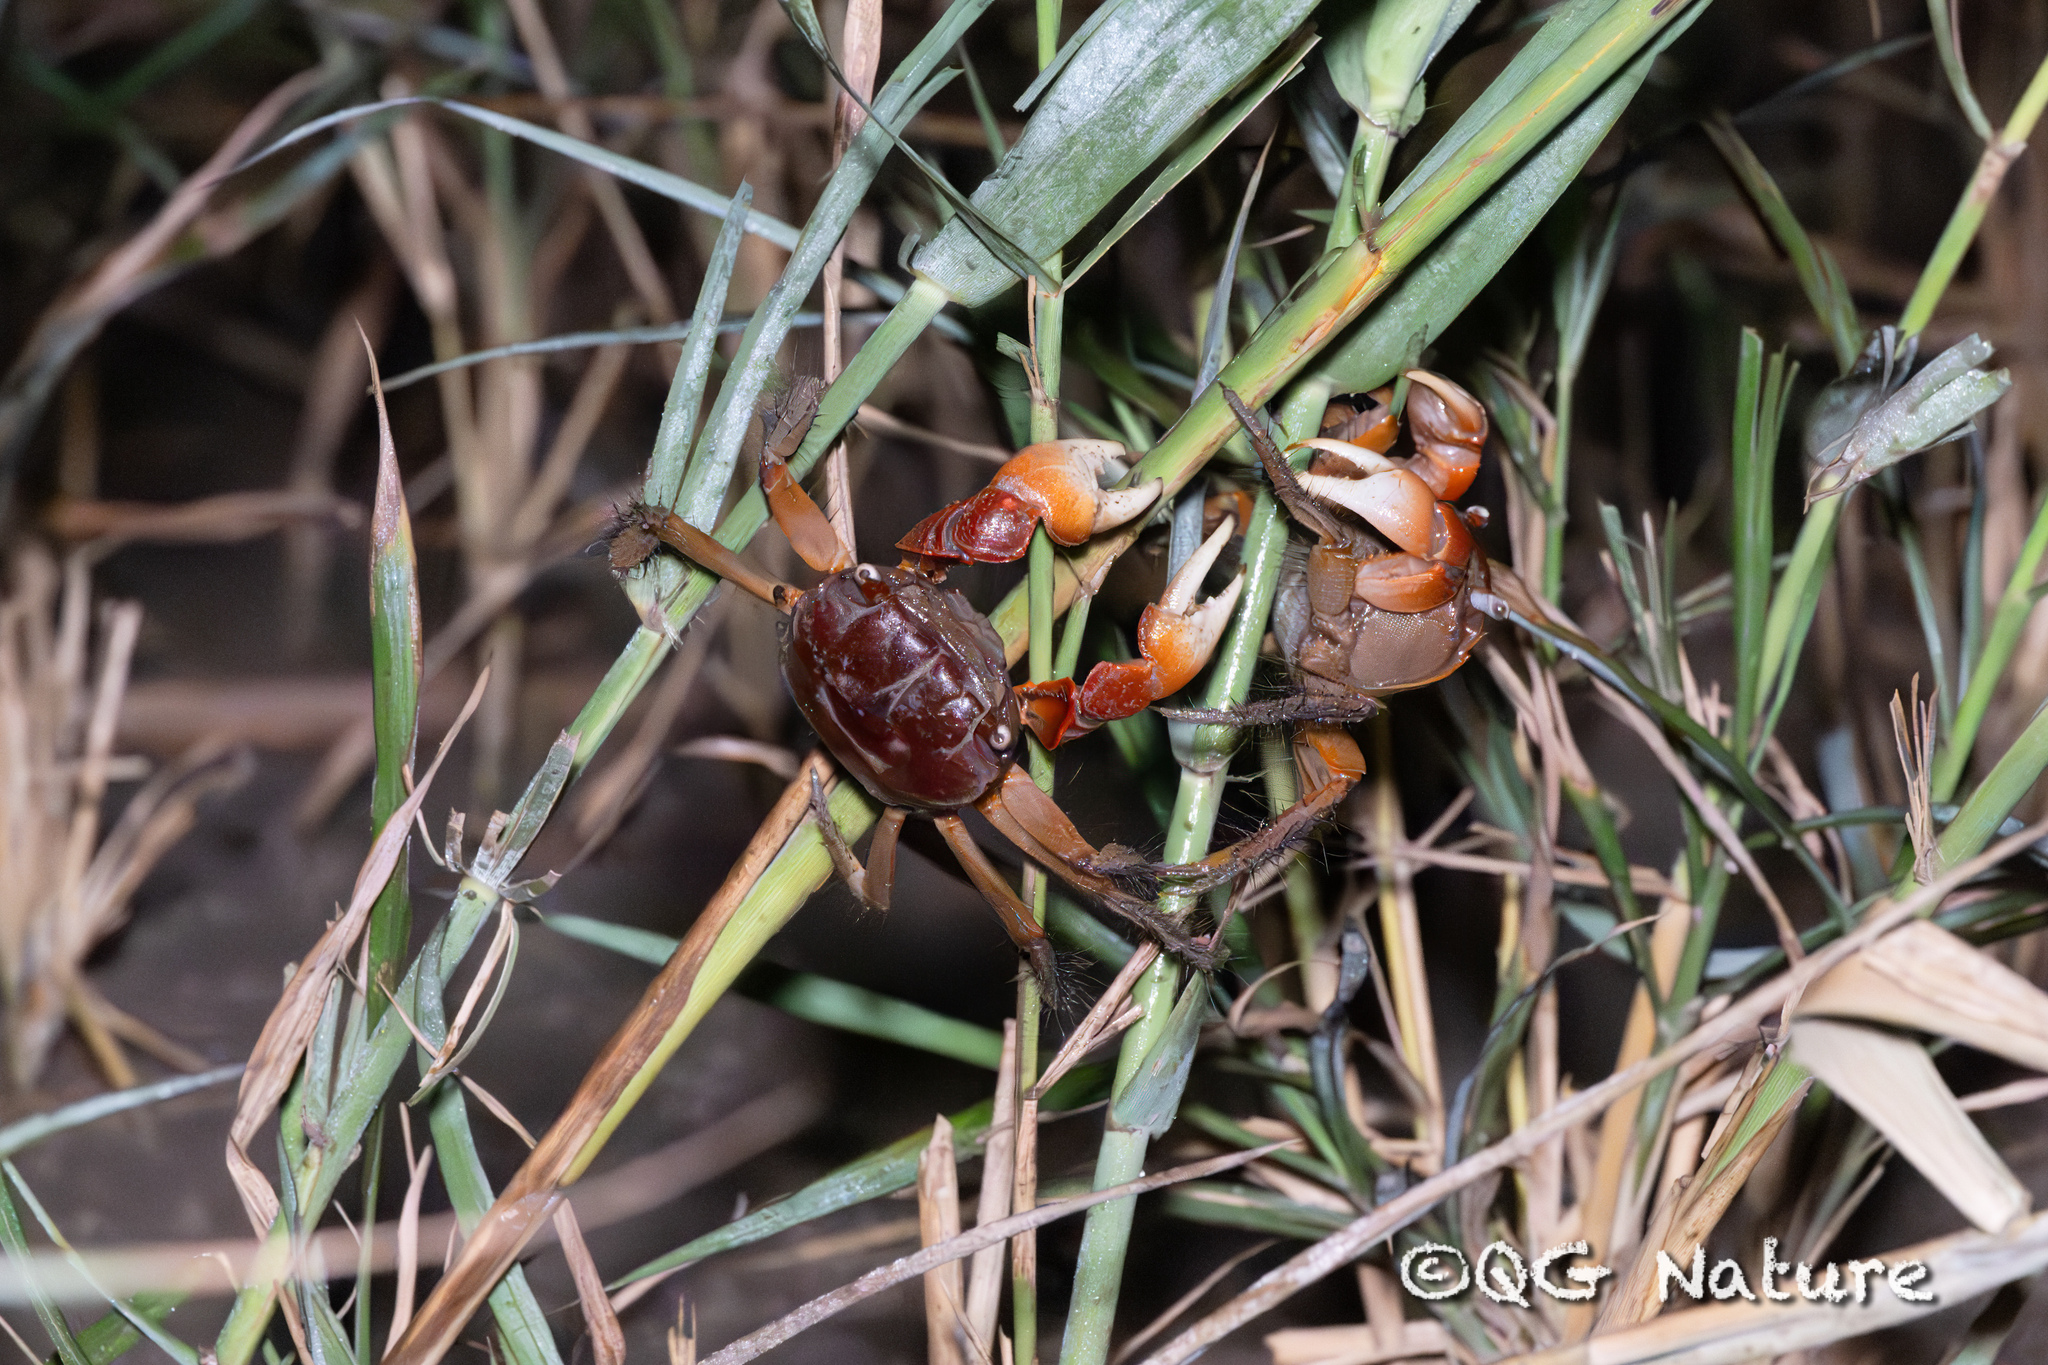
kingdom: Animalia
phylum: Arthropoda
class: Malacostraca
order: Decapoda
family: Sesarmidae
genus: Orisarma
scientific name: Orisarma sinense
